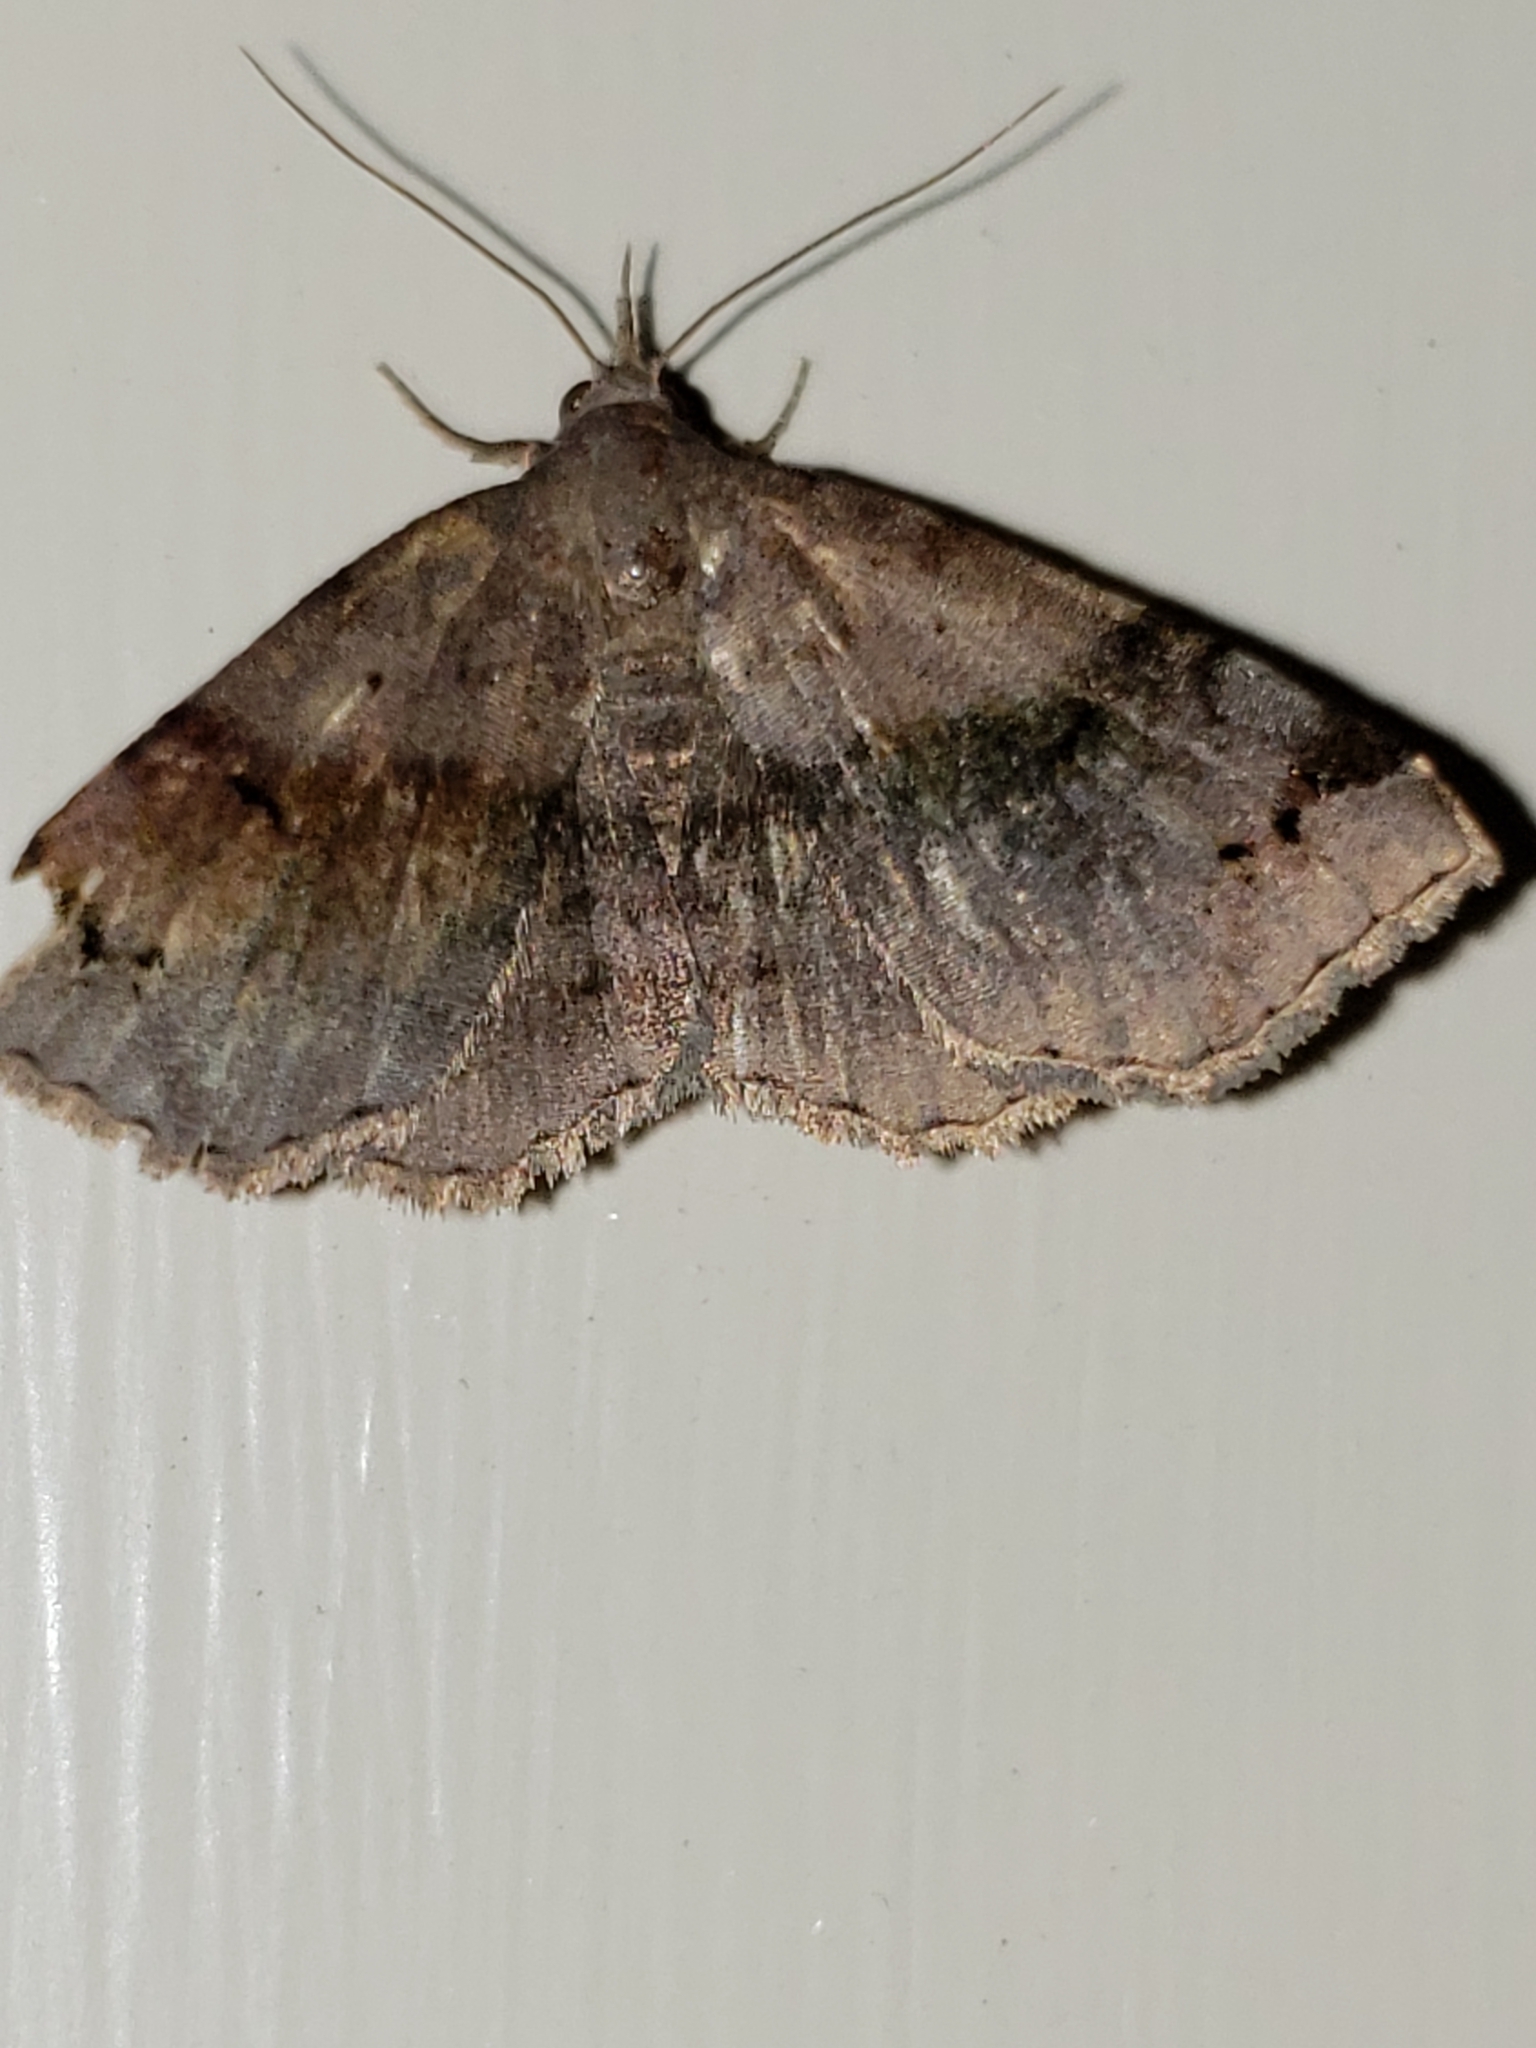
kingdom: Animalia
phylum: Arthropoda
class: Insecta
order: Lepidoptera
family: Erebidae
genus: Spargaloma
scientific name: Spargaloma sexpunctata
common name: Six-spotted gray
